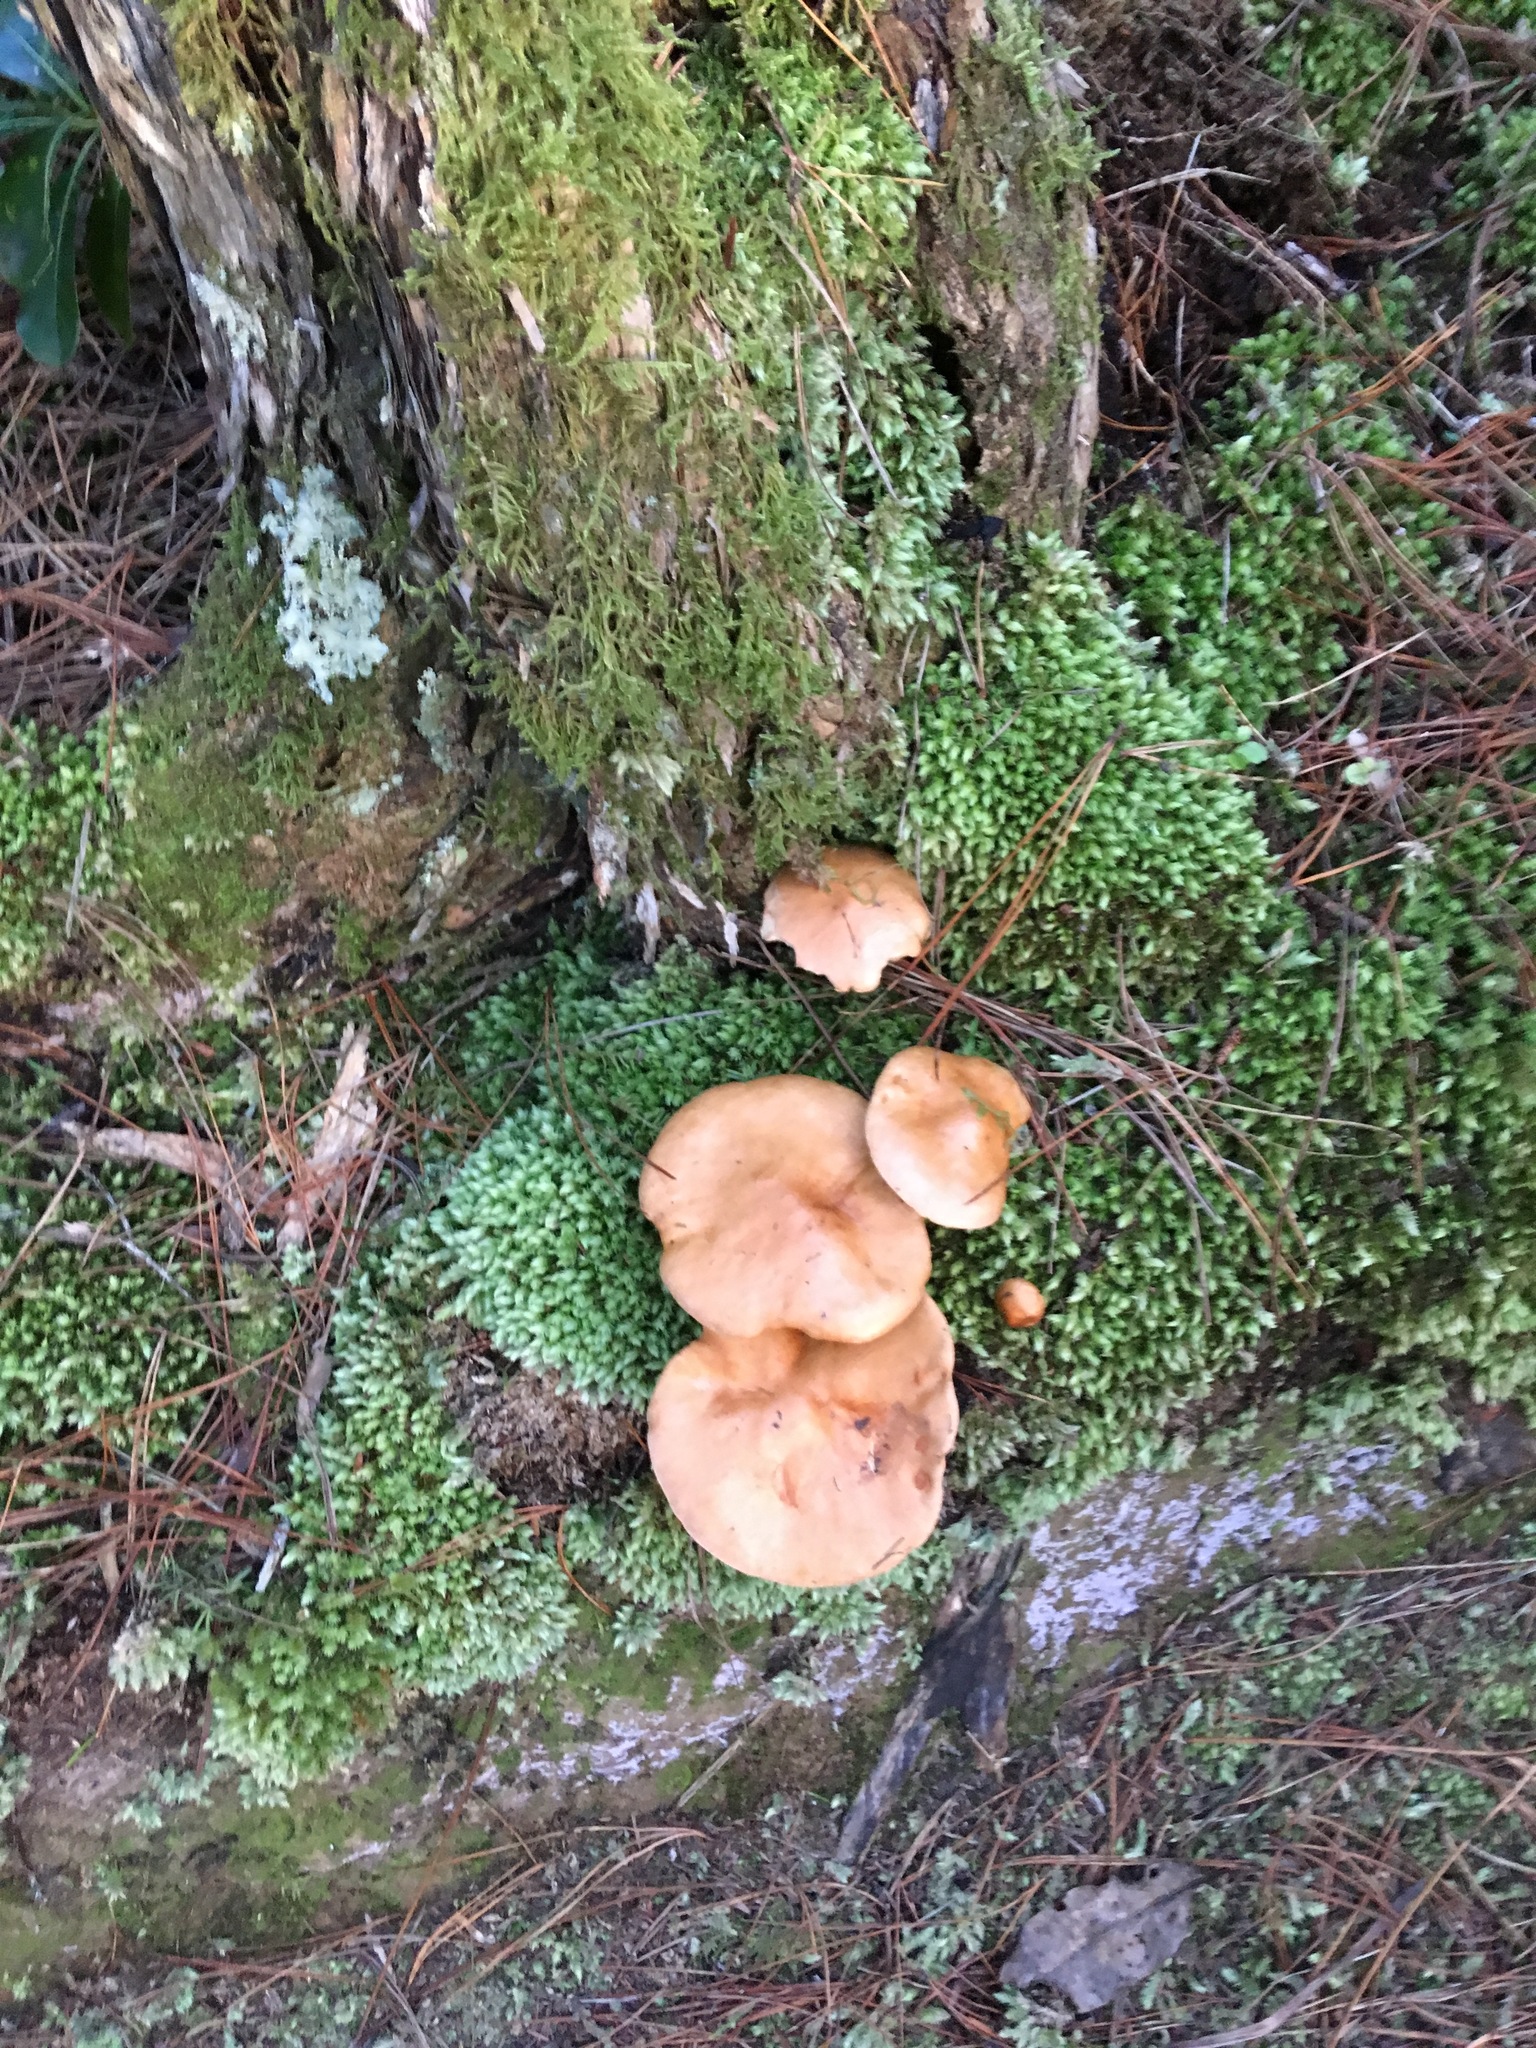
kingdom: Plantae
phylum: Bryophyta
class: Bryopsida
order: Dicranales
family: Leucobryaceae
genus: Leucobryum
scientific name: Leucobryum javense
